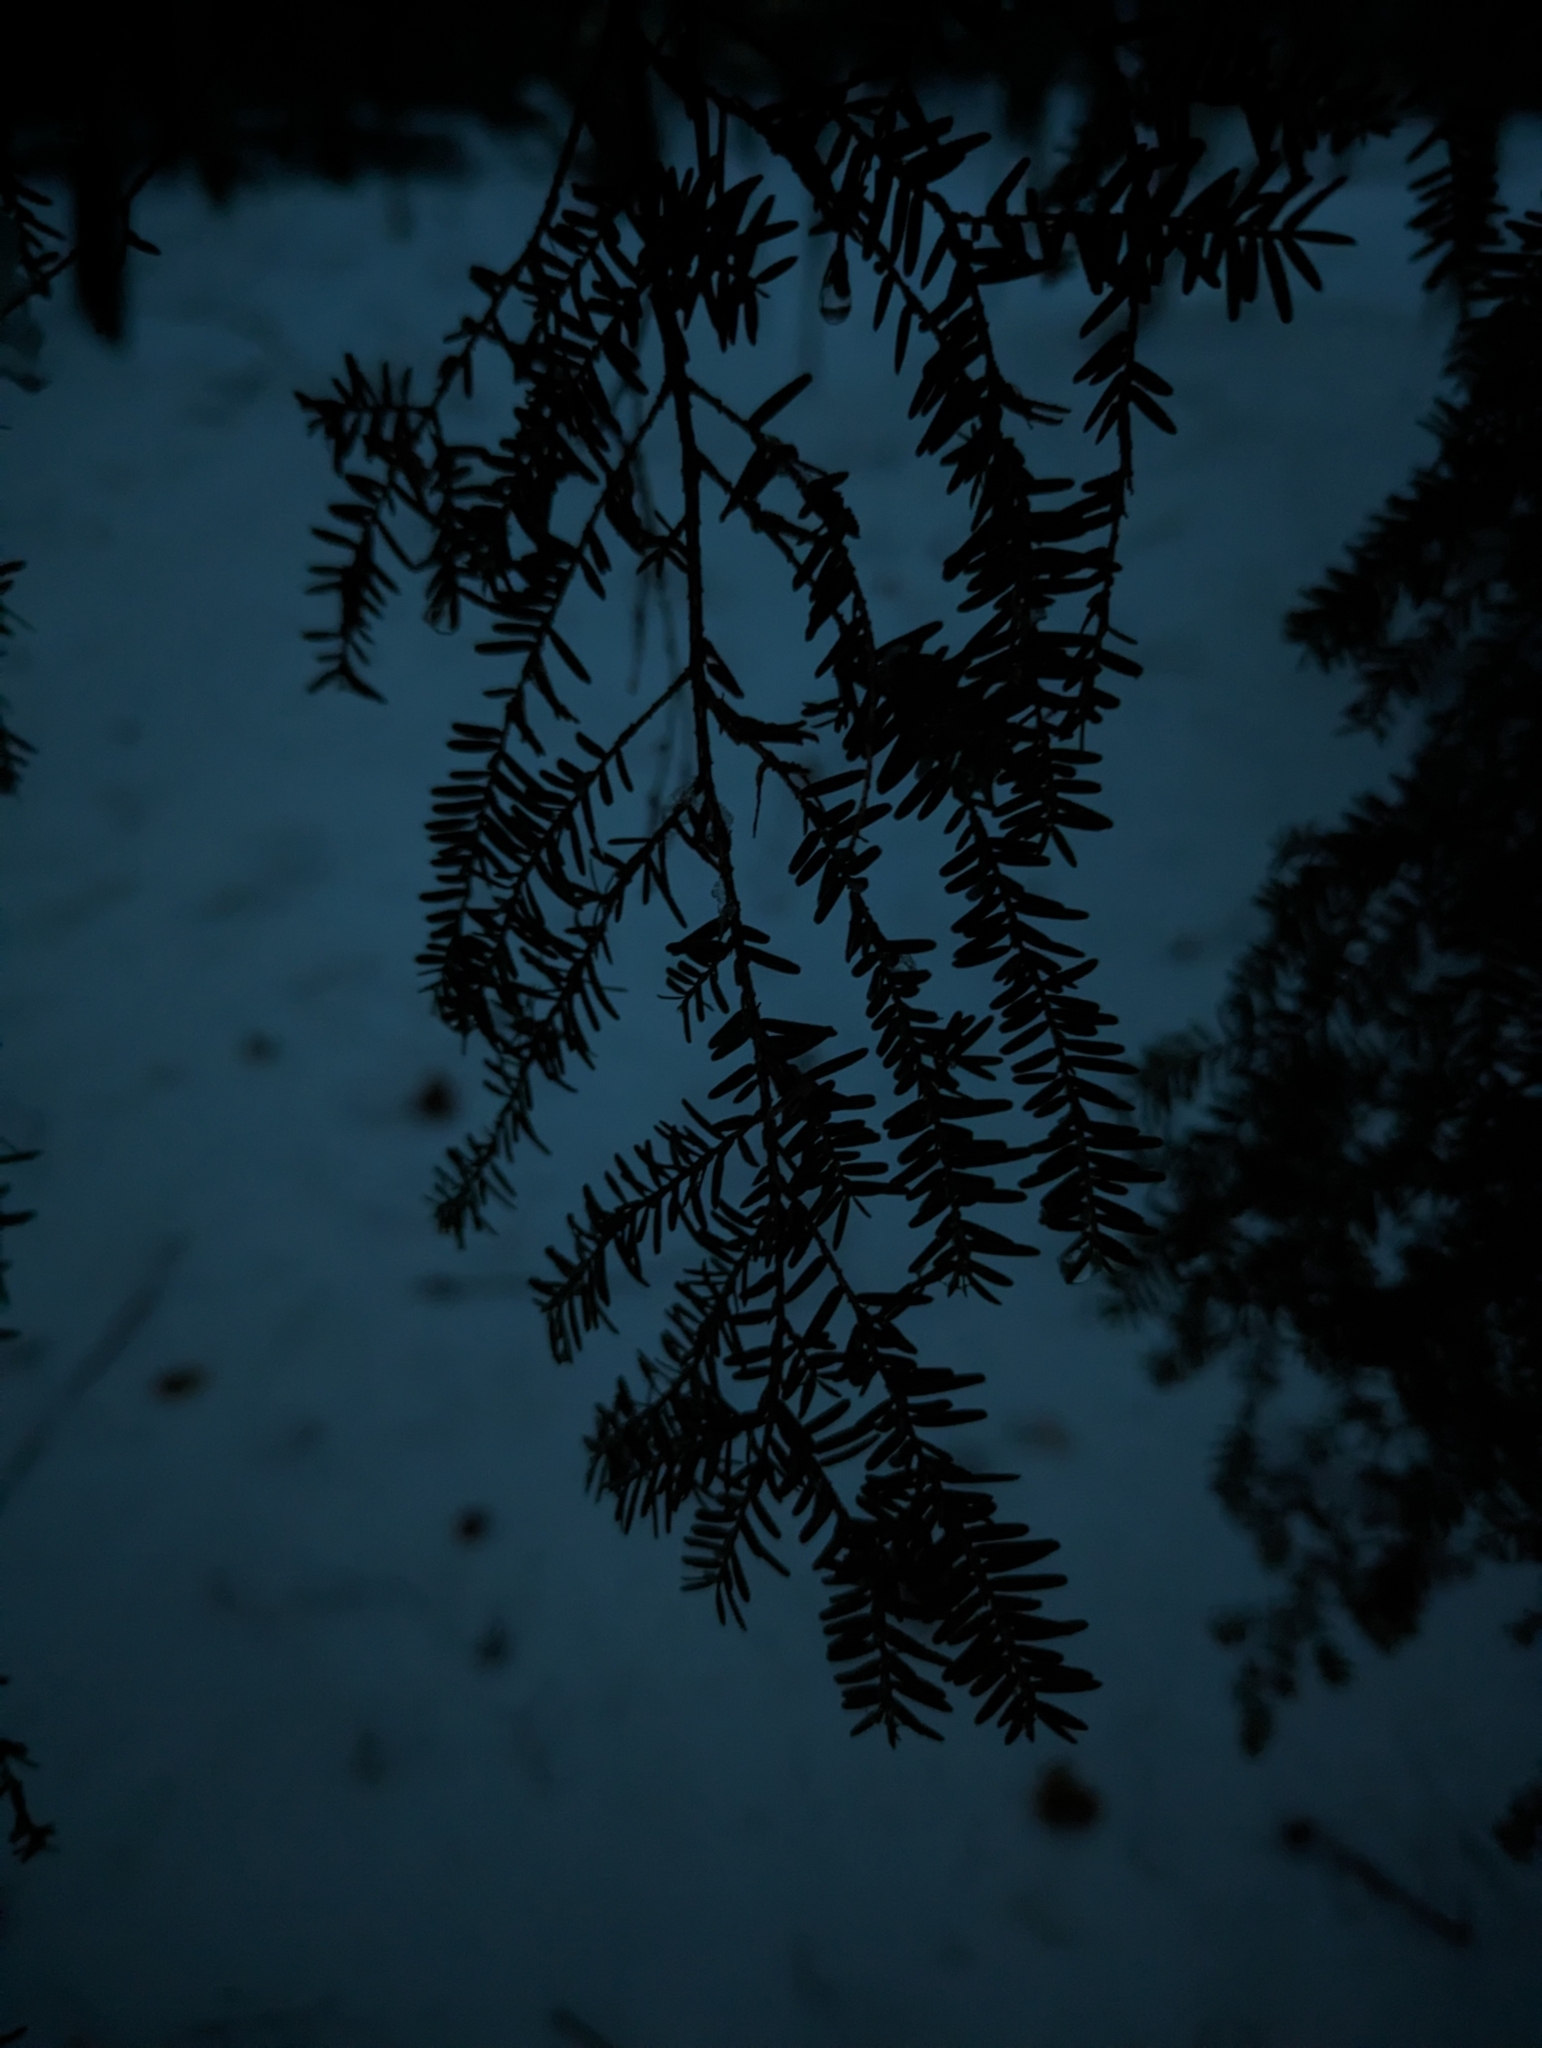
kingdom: Plantae
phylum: Tracheophyta
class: Pinopsida
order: Pinales
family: Pinaceae
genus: Tsuga
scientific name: Tsuga canadensis
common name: Eastern hemlock
